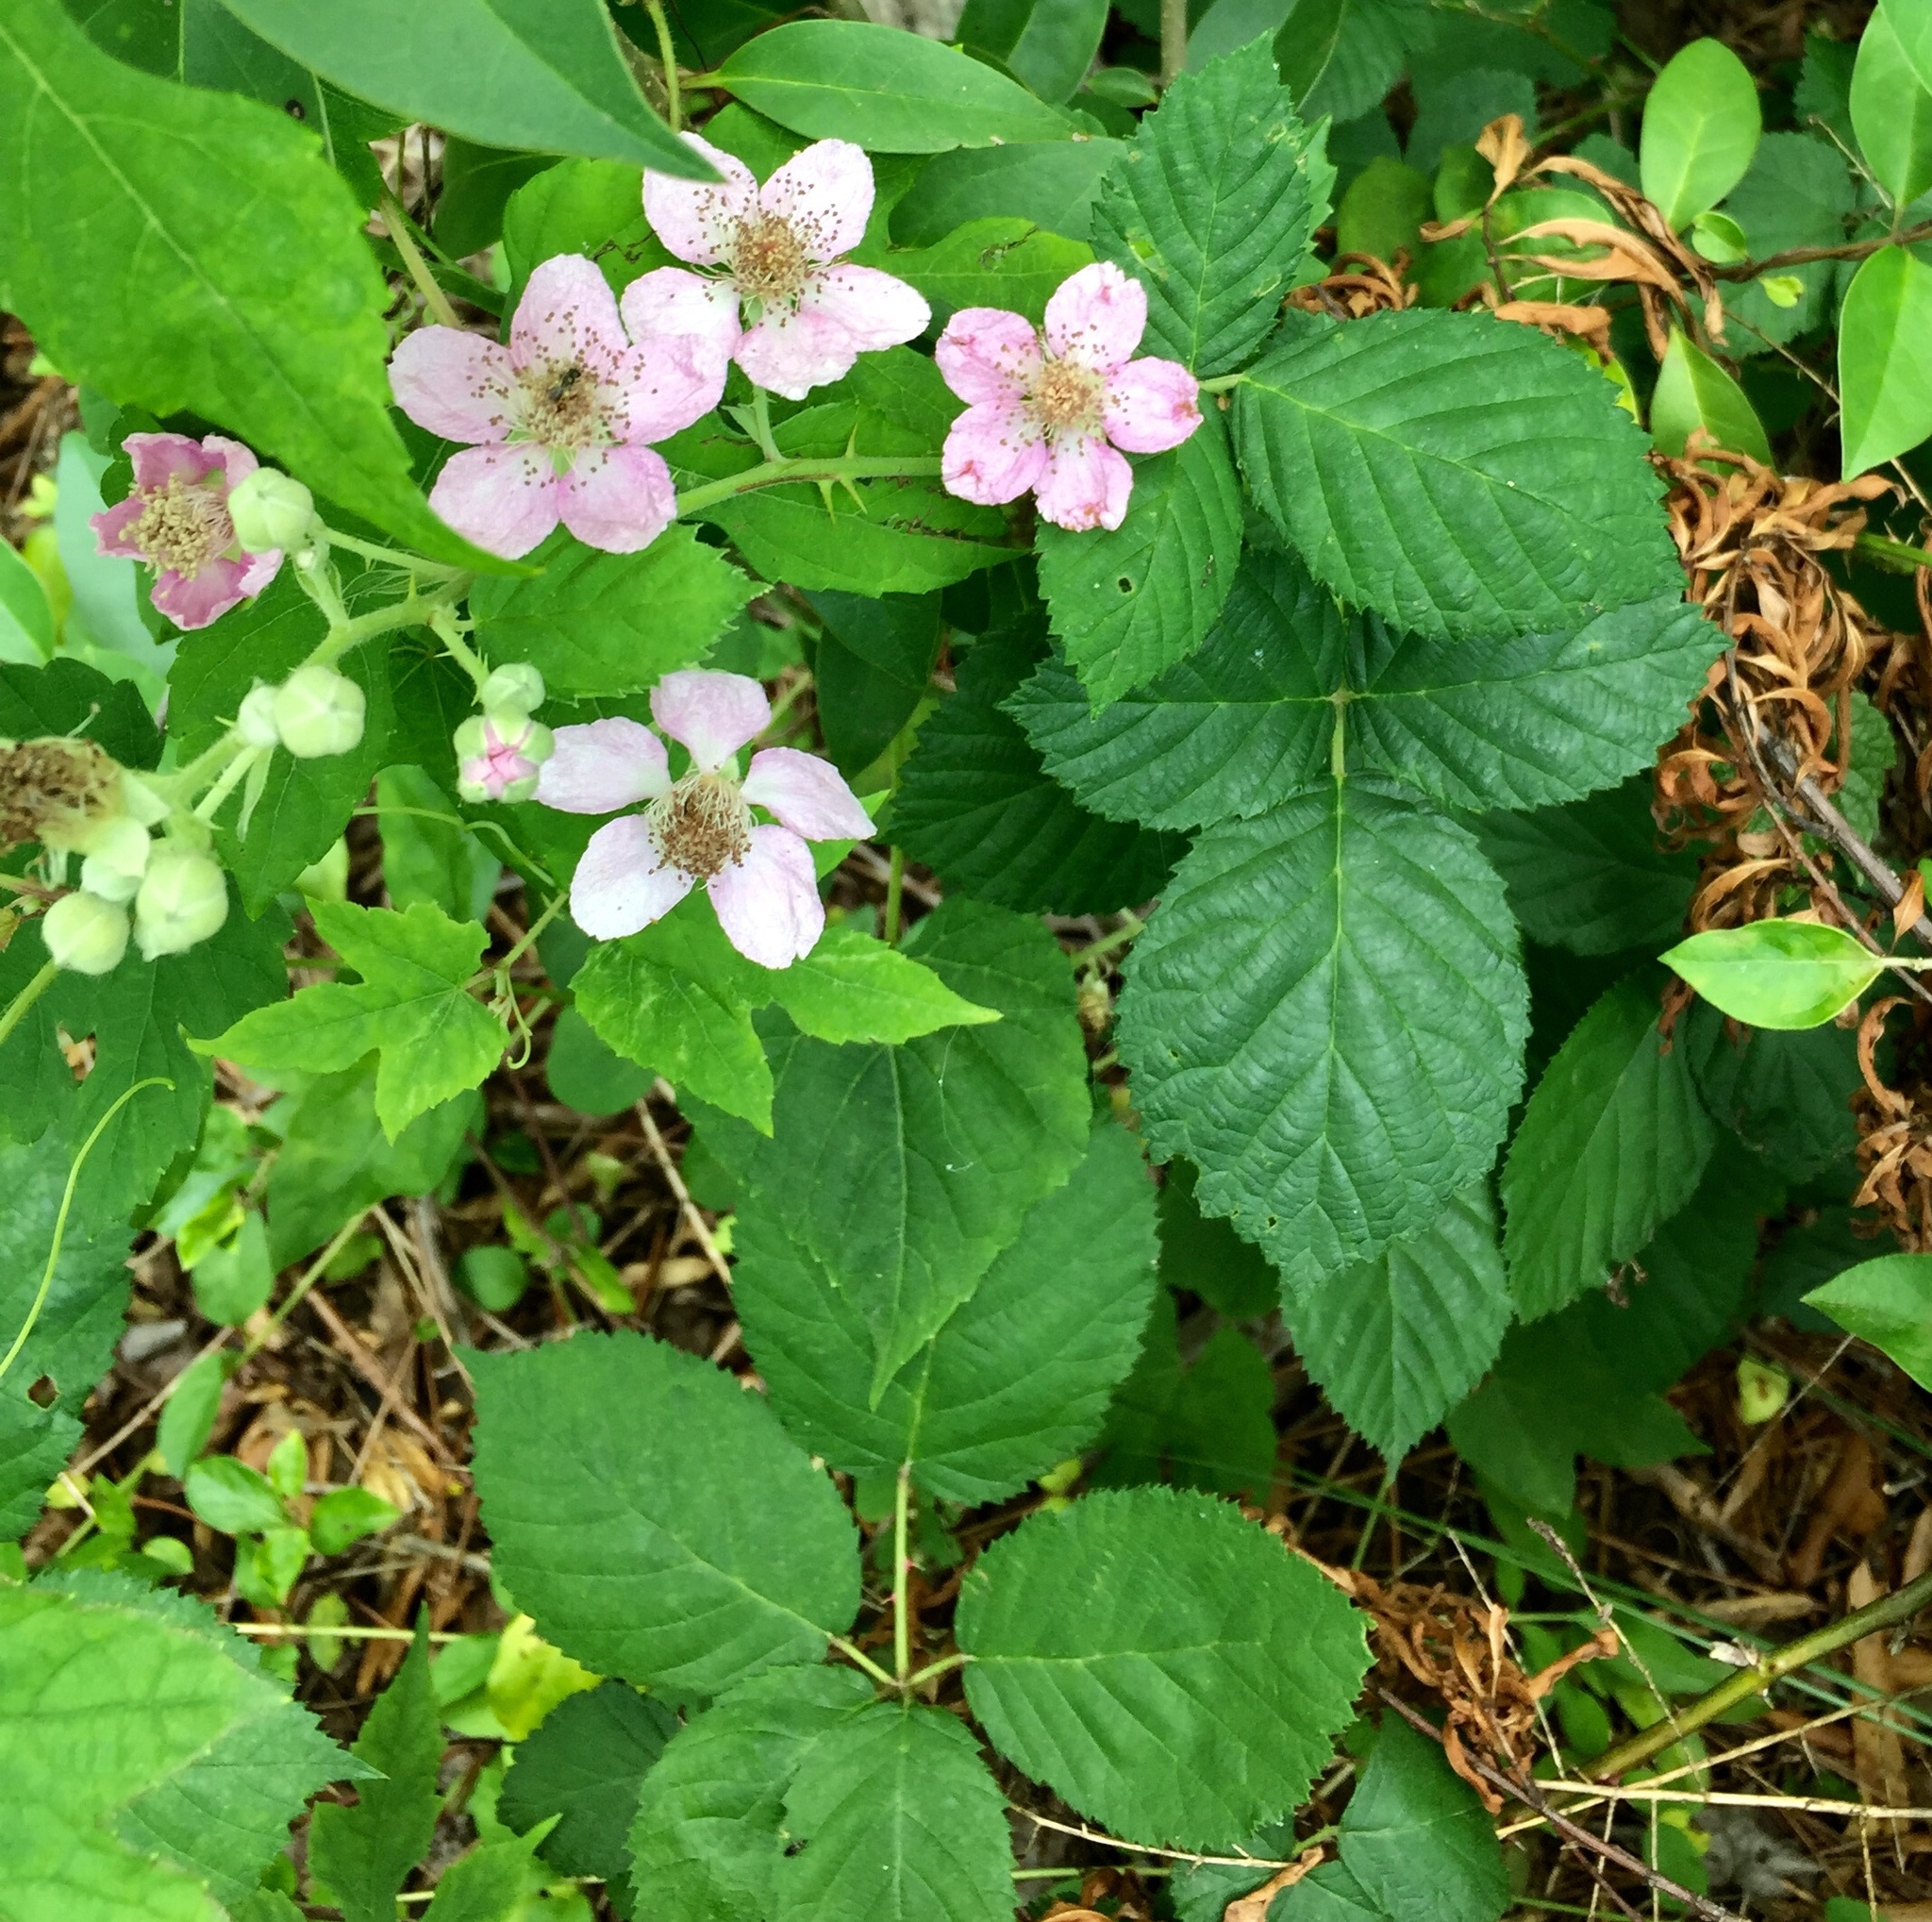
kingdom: Plantae
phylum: Tracheophyta
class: Magnoliopsida
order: Rosales
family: Rosaceae
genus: Rubus
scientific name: Rubus bifrons
